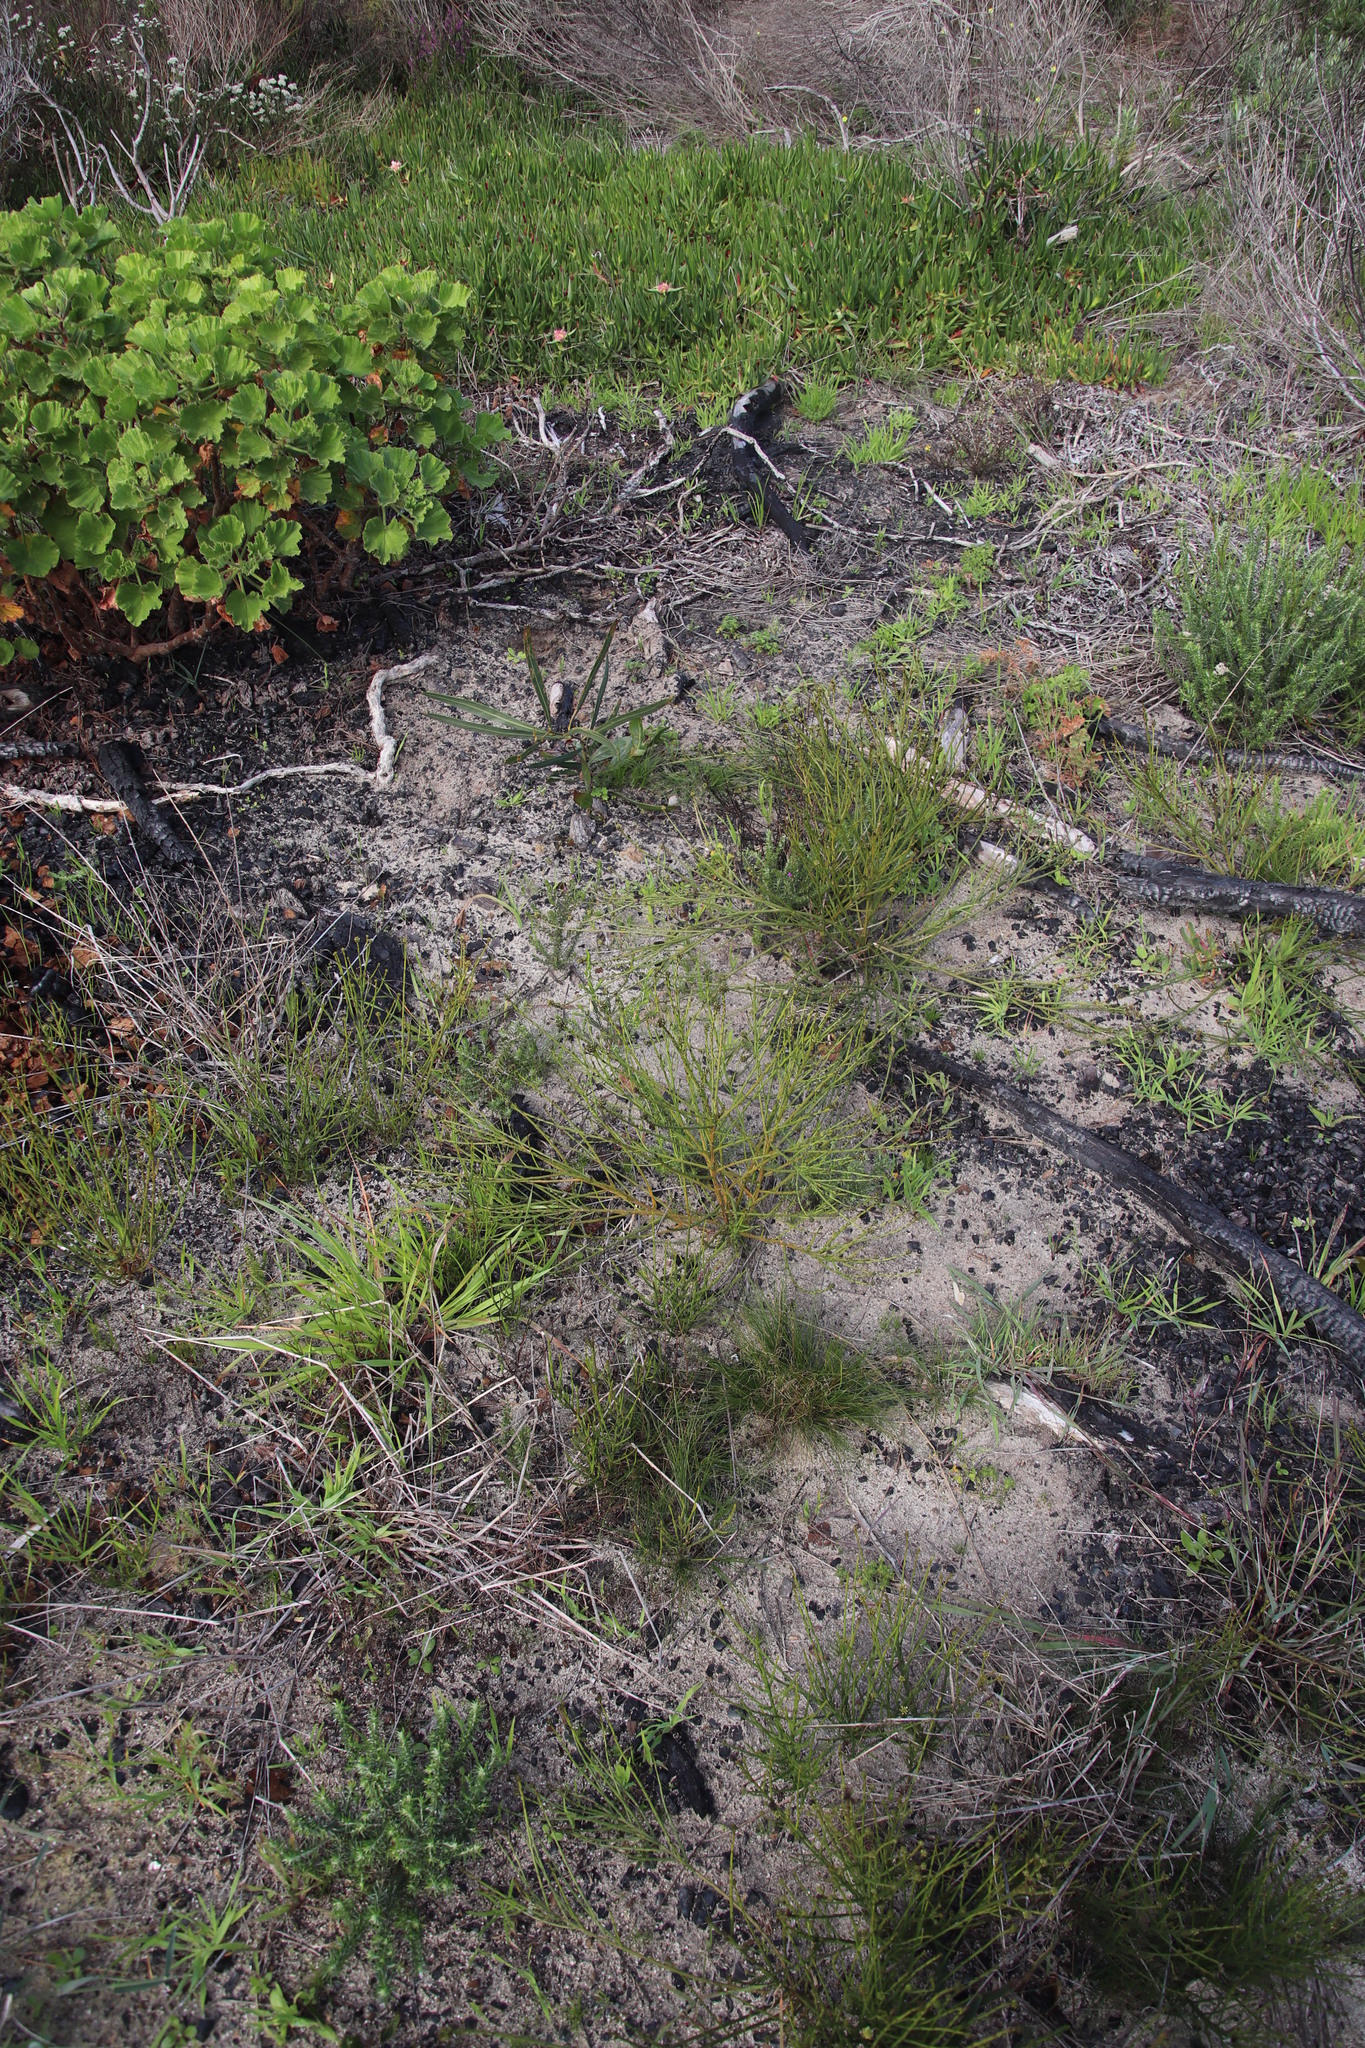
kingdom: Plantae
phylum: Tracheophyta
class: Magnoliopsida
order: Santalales
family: Thesiaceae
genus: Thesium
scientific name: Thesium aggregatum
